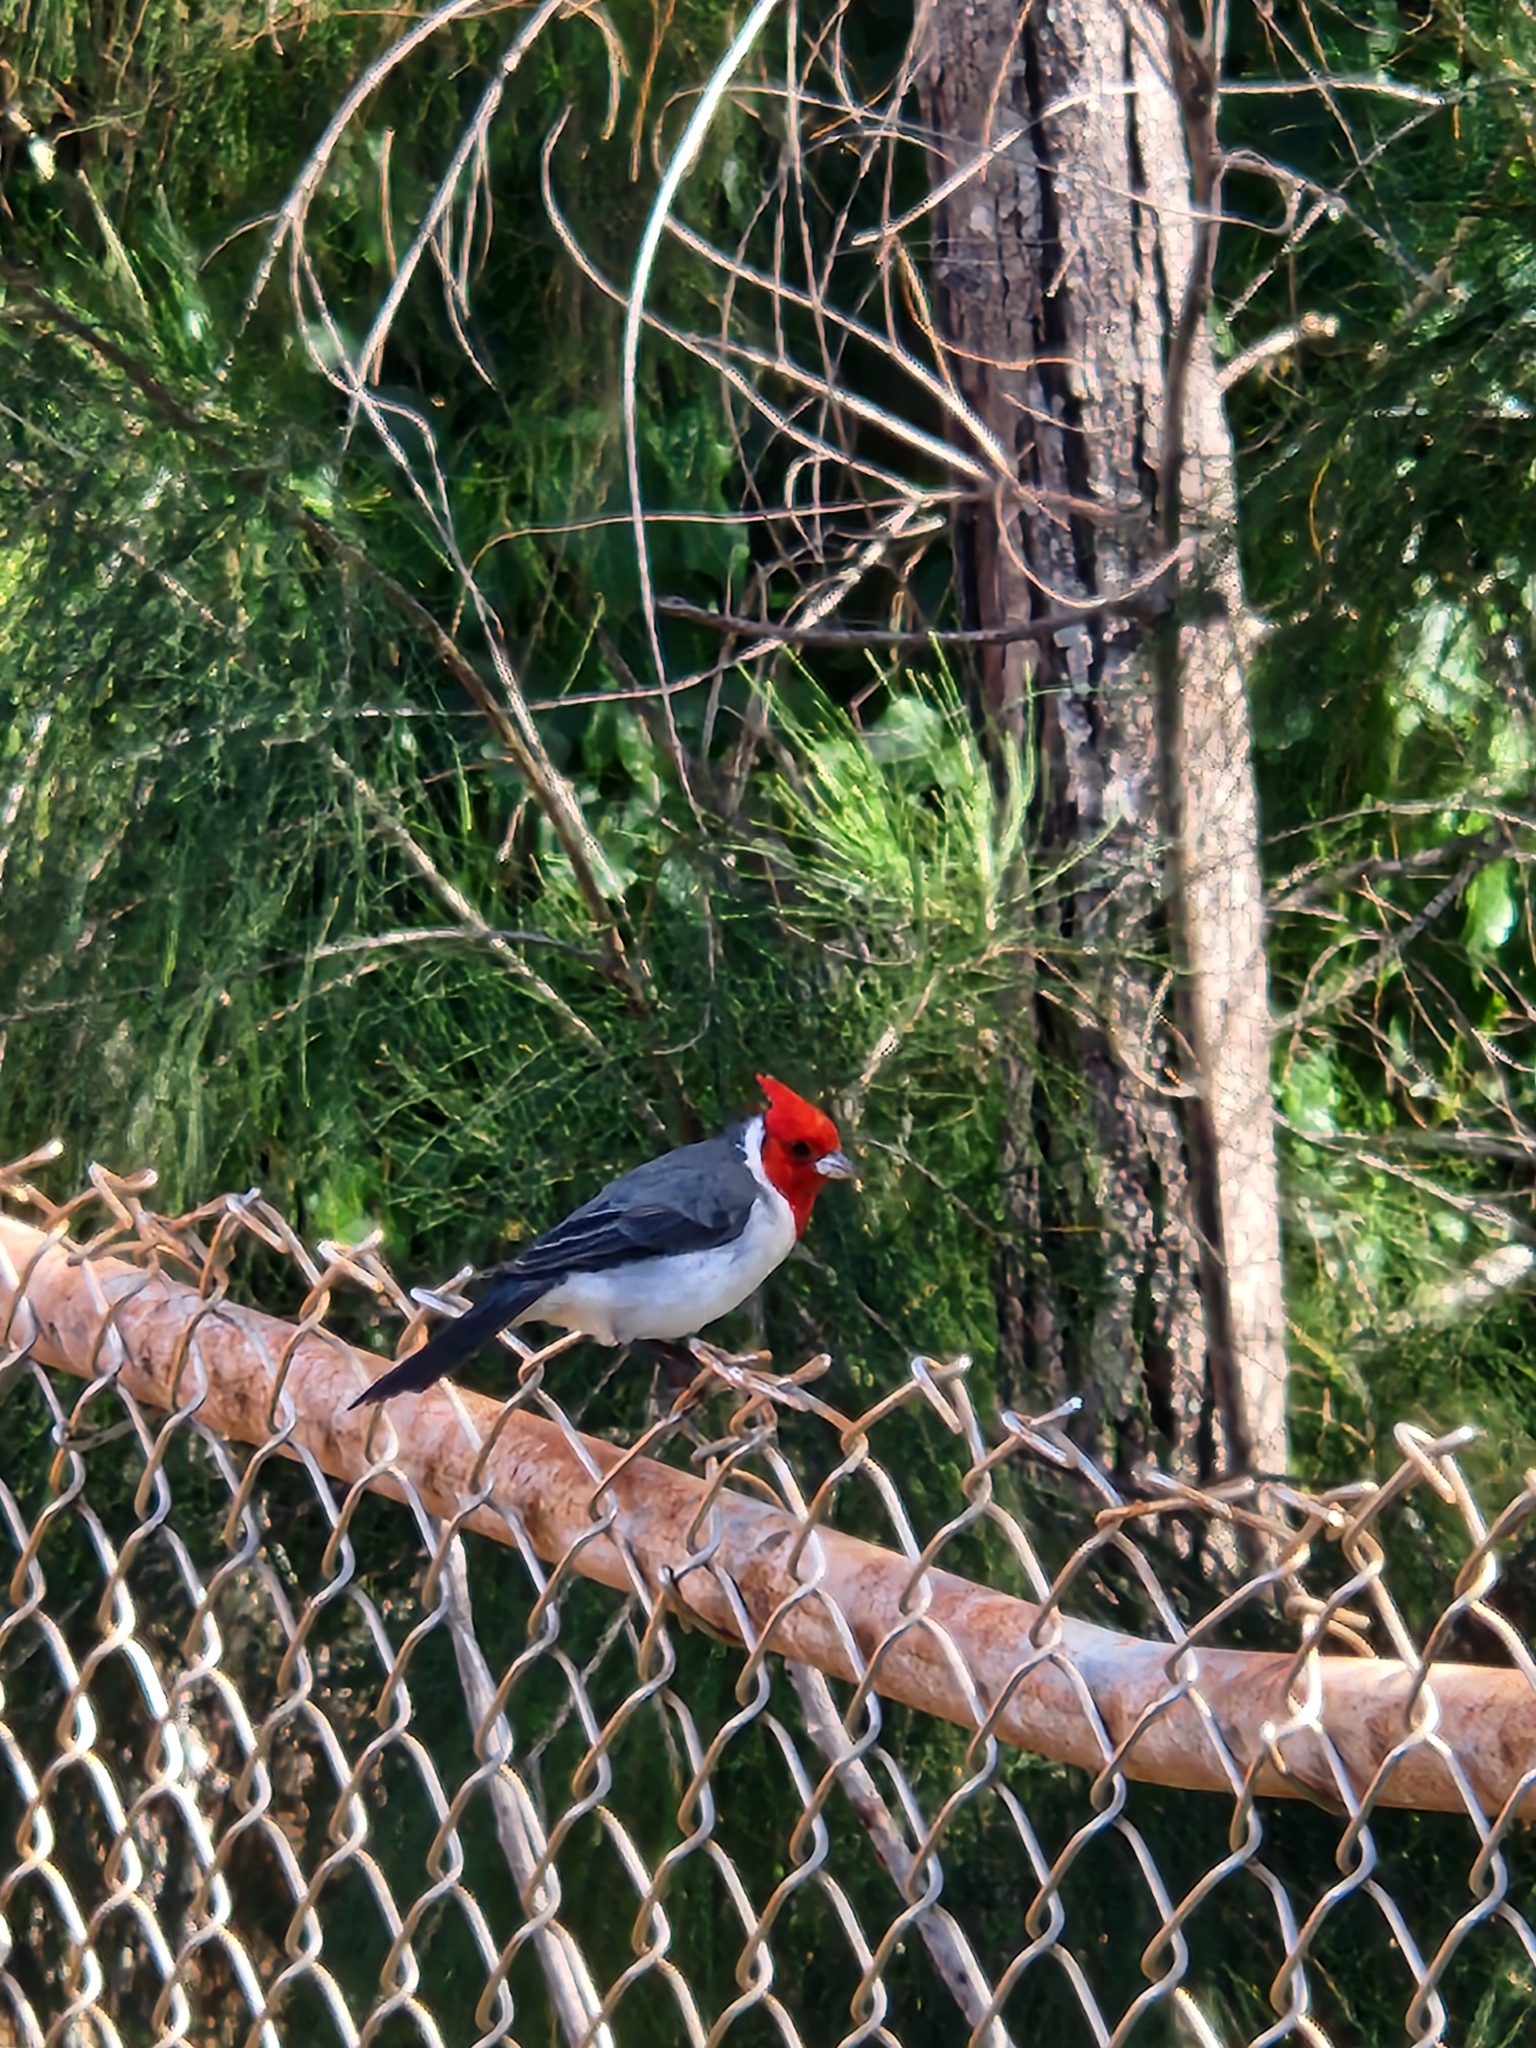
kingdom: Animalia
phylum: Chordata
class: Aves
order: Passeriformes
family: Thraupidae
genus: Paroaria
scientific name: Paroaria coronata
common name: Red-crested cardinal
